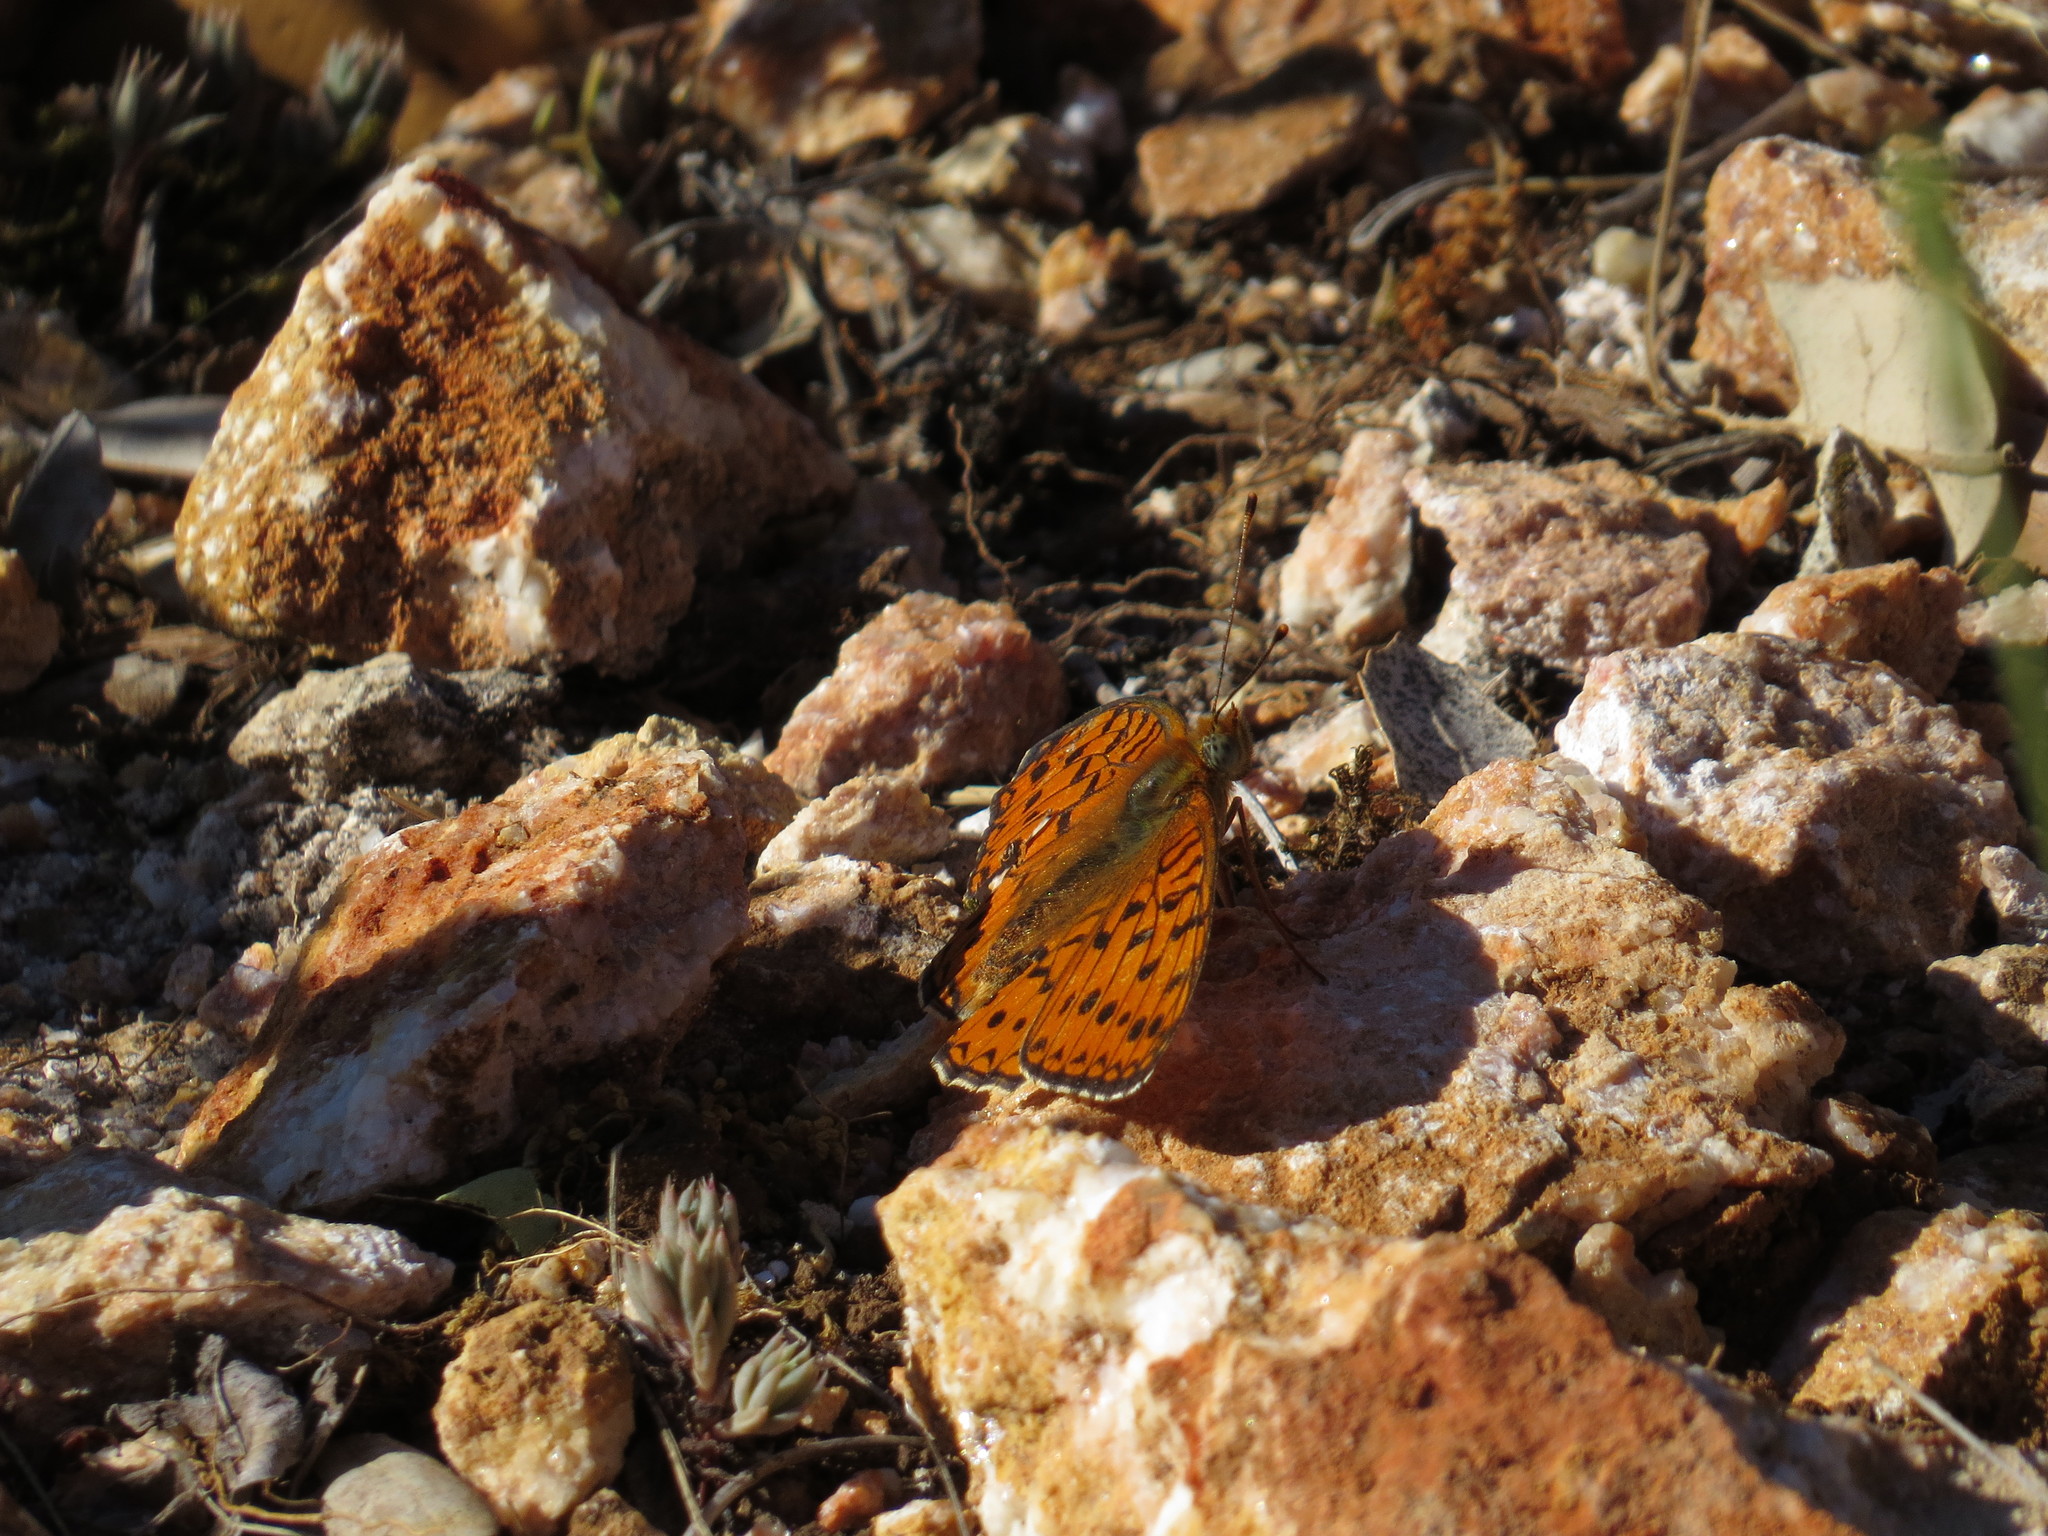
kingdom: Animalia
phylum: Arthropoda
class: Insecta
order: Lepidoptera
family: Nymphalidae
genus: Fabriciana
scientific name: Fabriciana niobe
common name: Niobe fritillary
